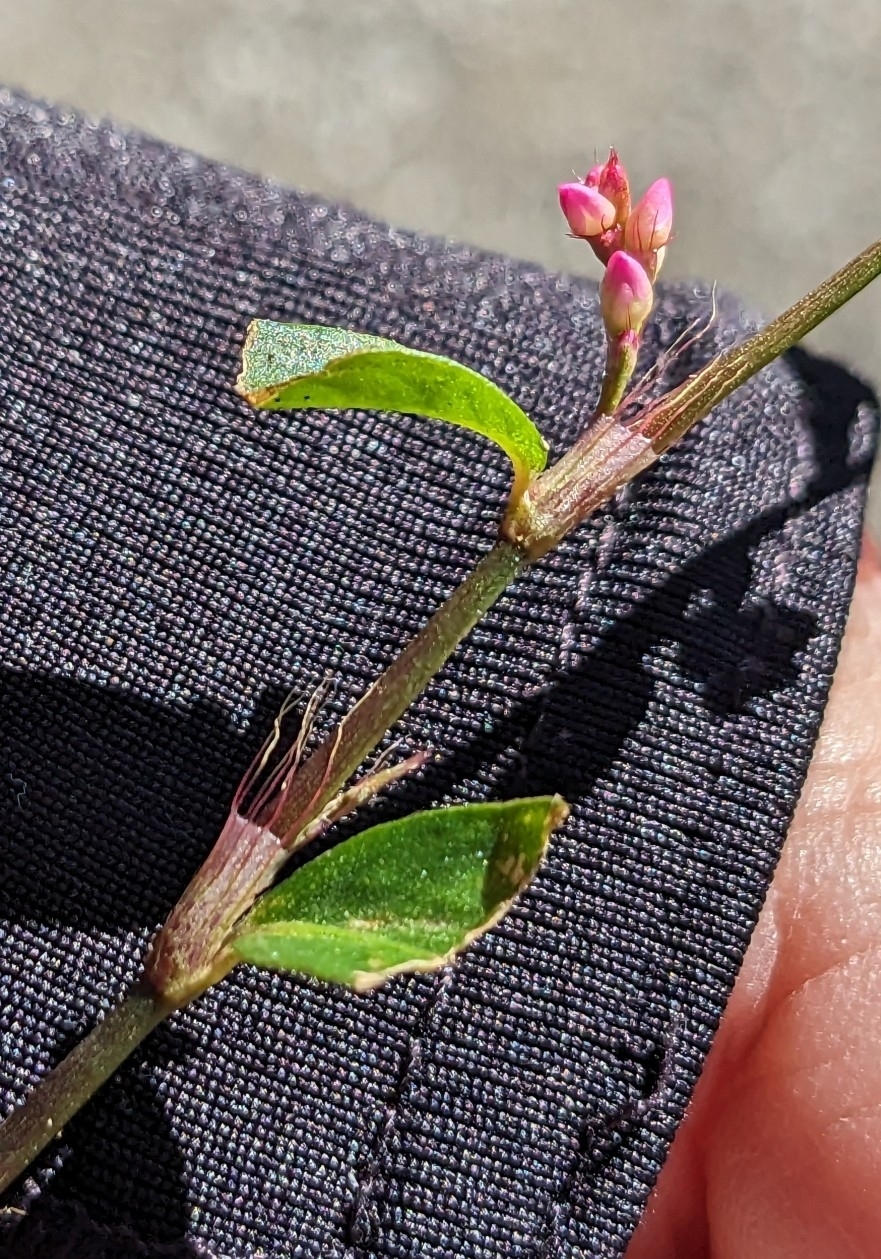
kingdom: Plantae
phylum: Tracheophyta
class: Magnoliopsida
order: Caryophyllales
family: Polygonaceae
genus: Persicaria
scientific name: Persicaria longiseta
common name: Bristly lady's-thumb
